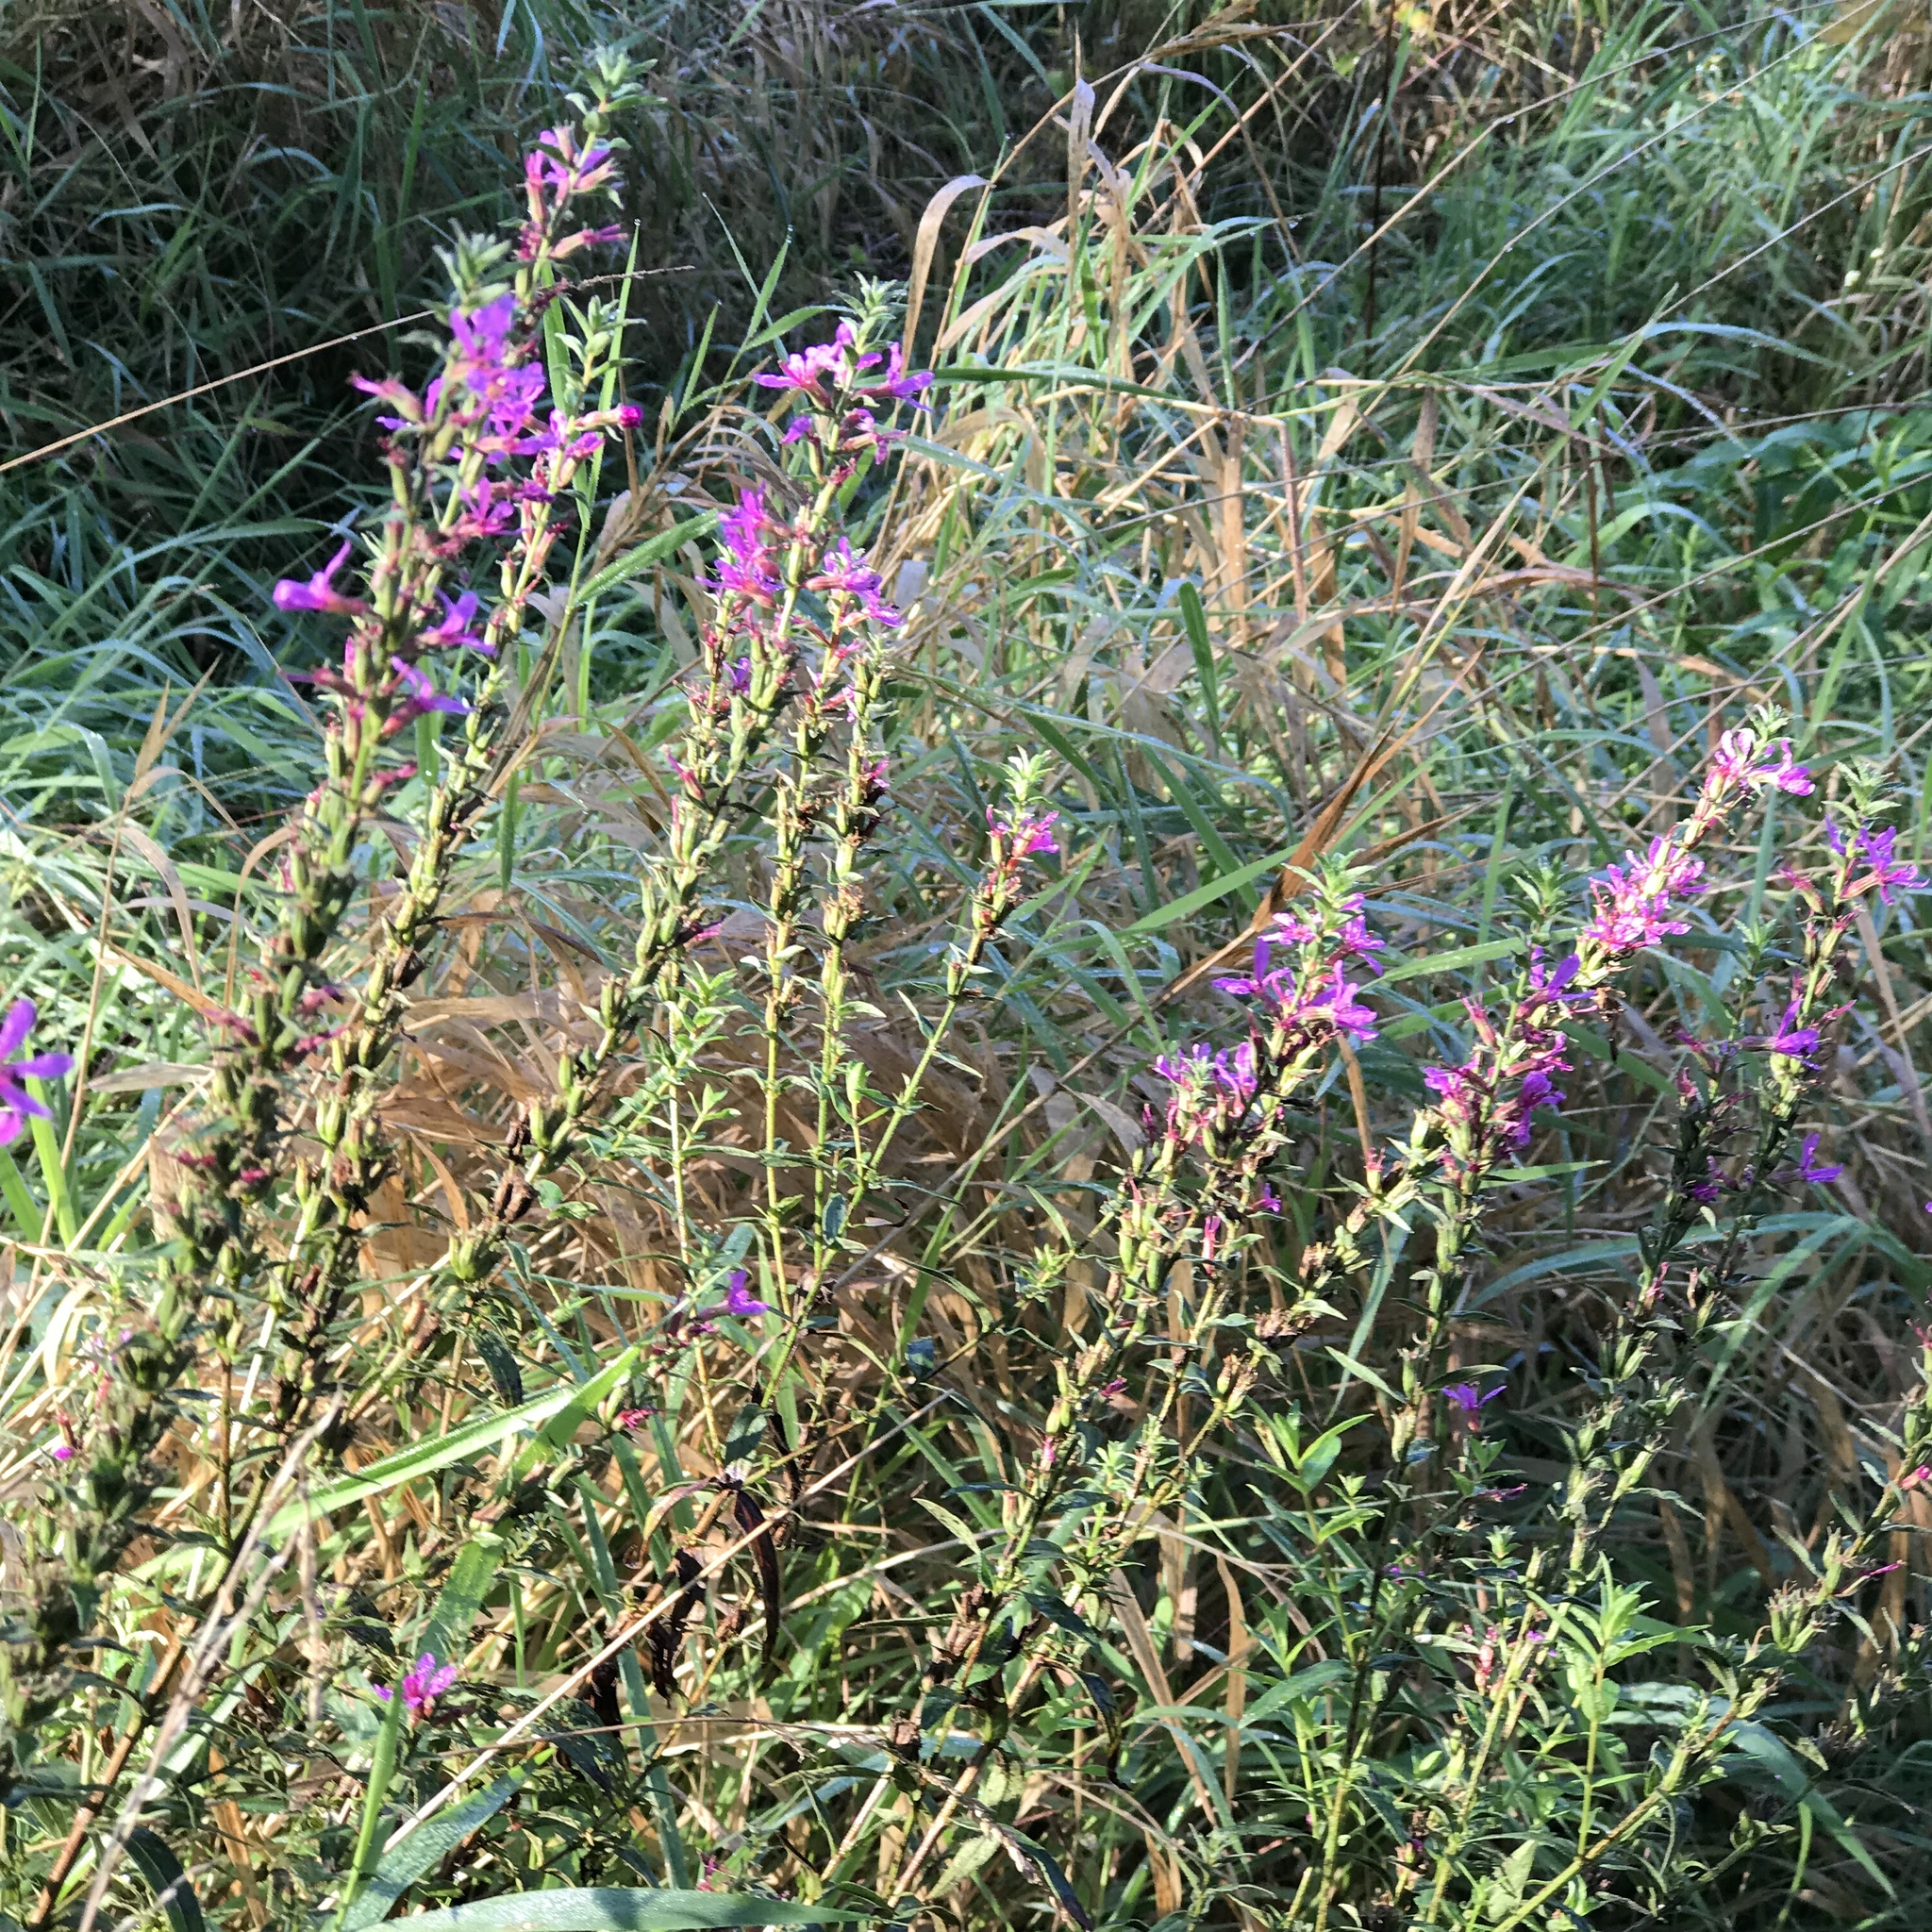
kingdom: Plantae
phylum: Tracheophyta
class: Magnoliopsida
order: Myrtales
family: Lythraceae
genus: Lythrum
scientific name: Lythrum salicaria
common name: Purple loosestrife
